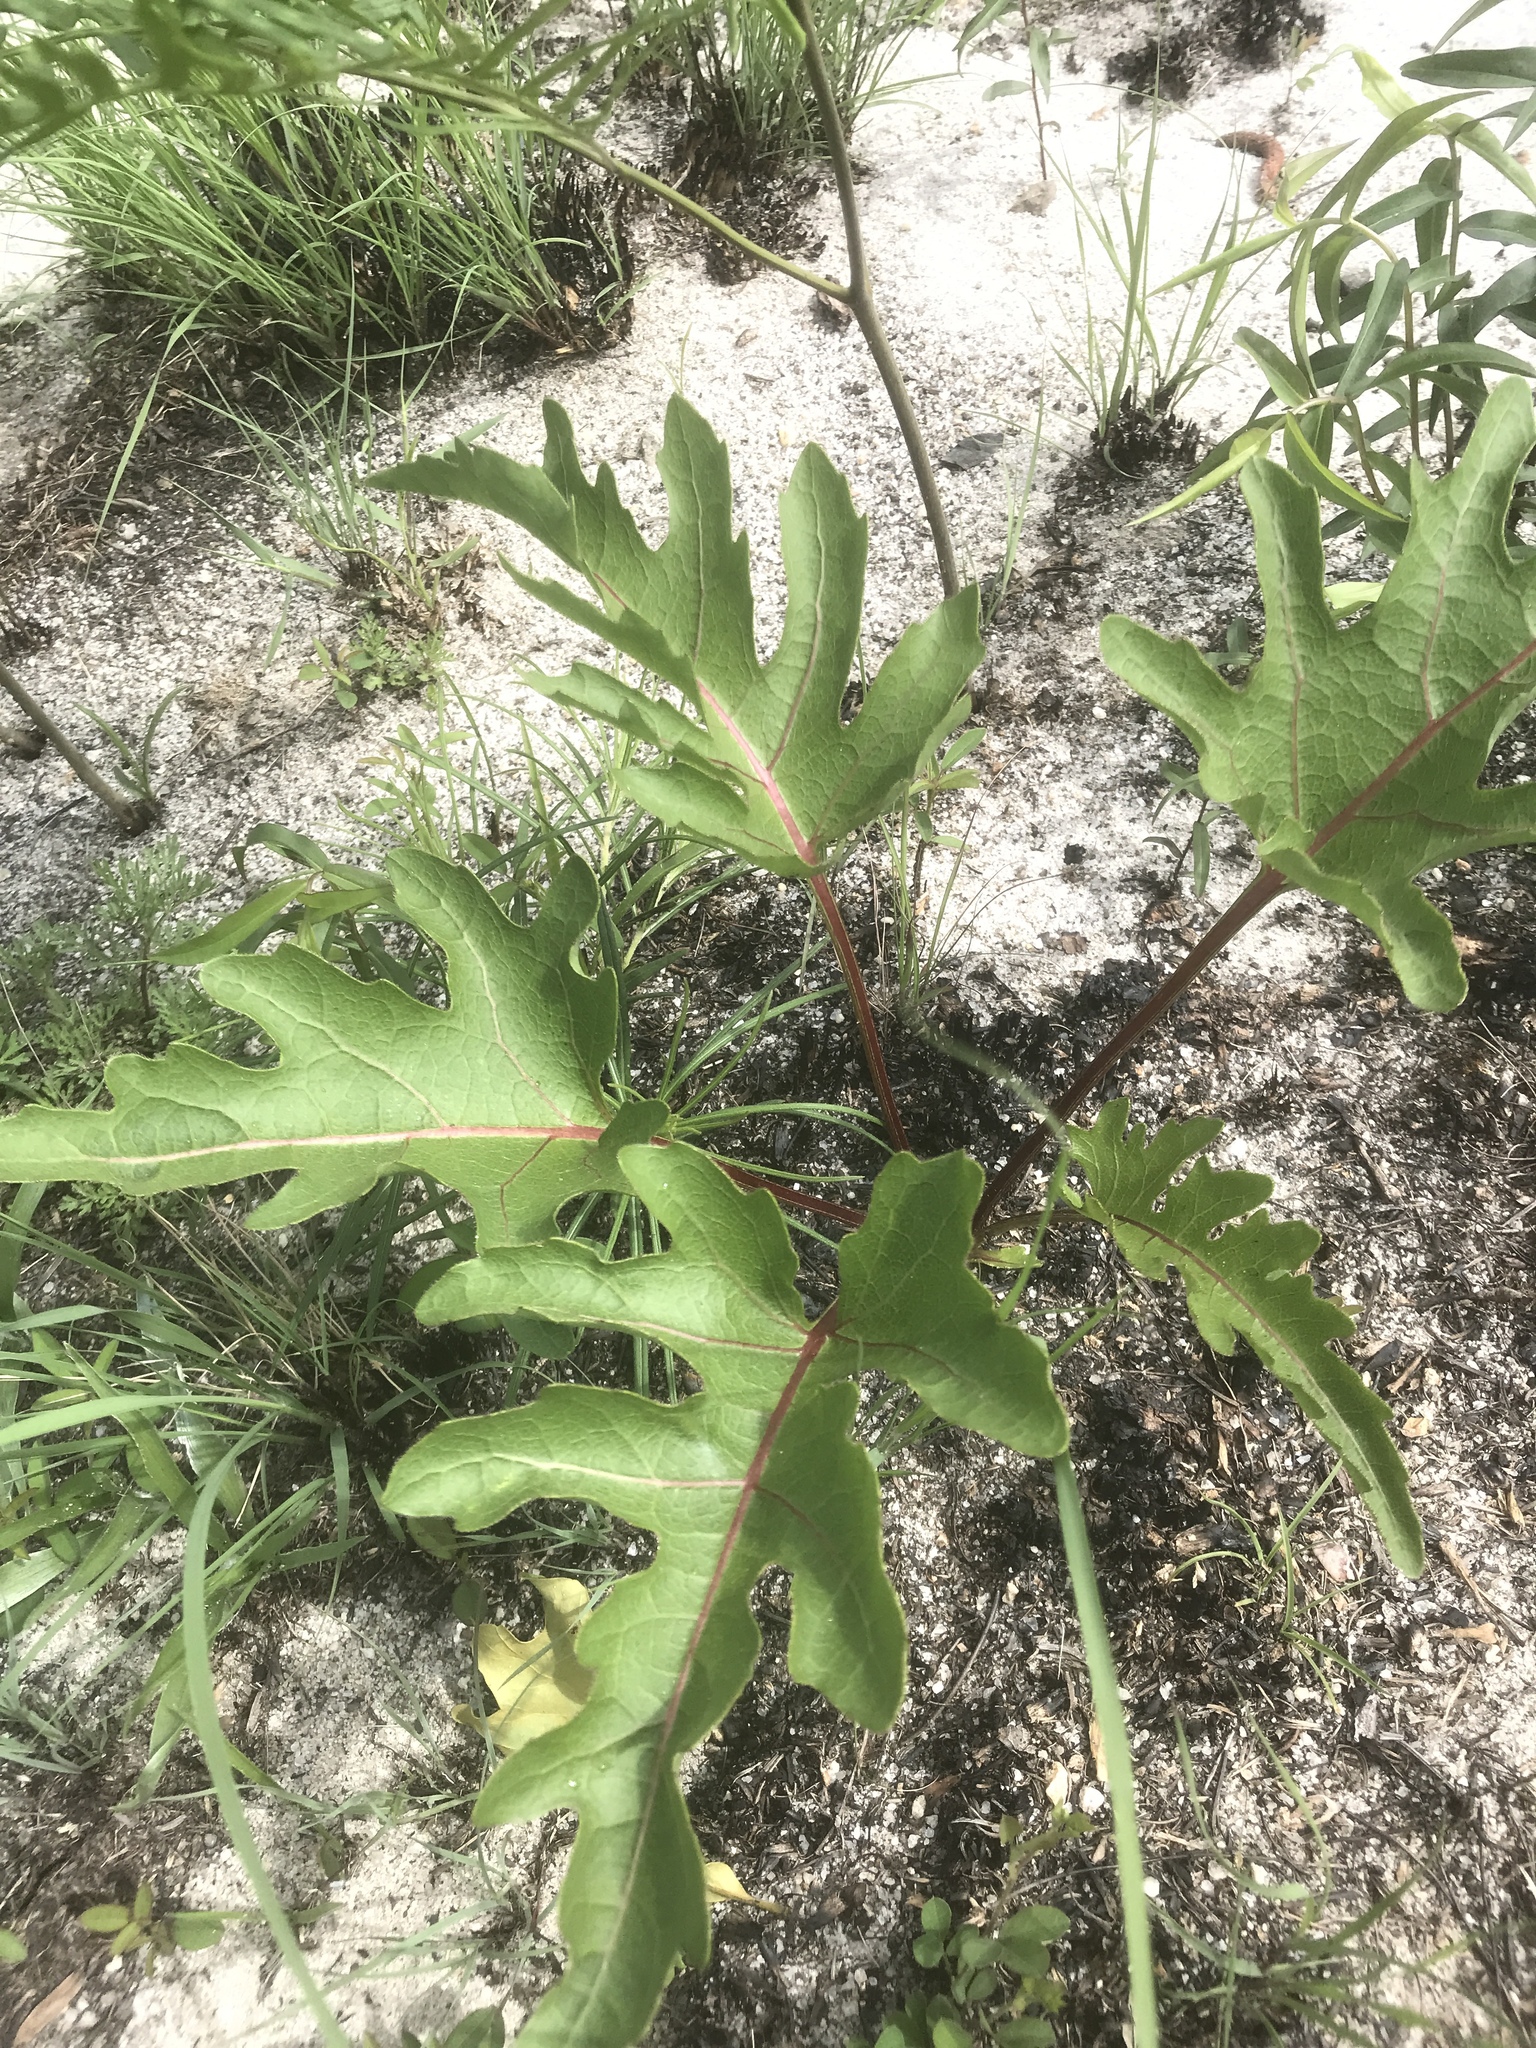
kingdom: Plantae
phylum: Tracheophyta
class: Magnoliopsida
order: Asterales
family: Asteraceae
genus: Silphium
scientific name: Silphium compositum
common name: Lesser basal-leaf rosinweed
